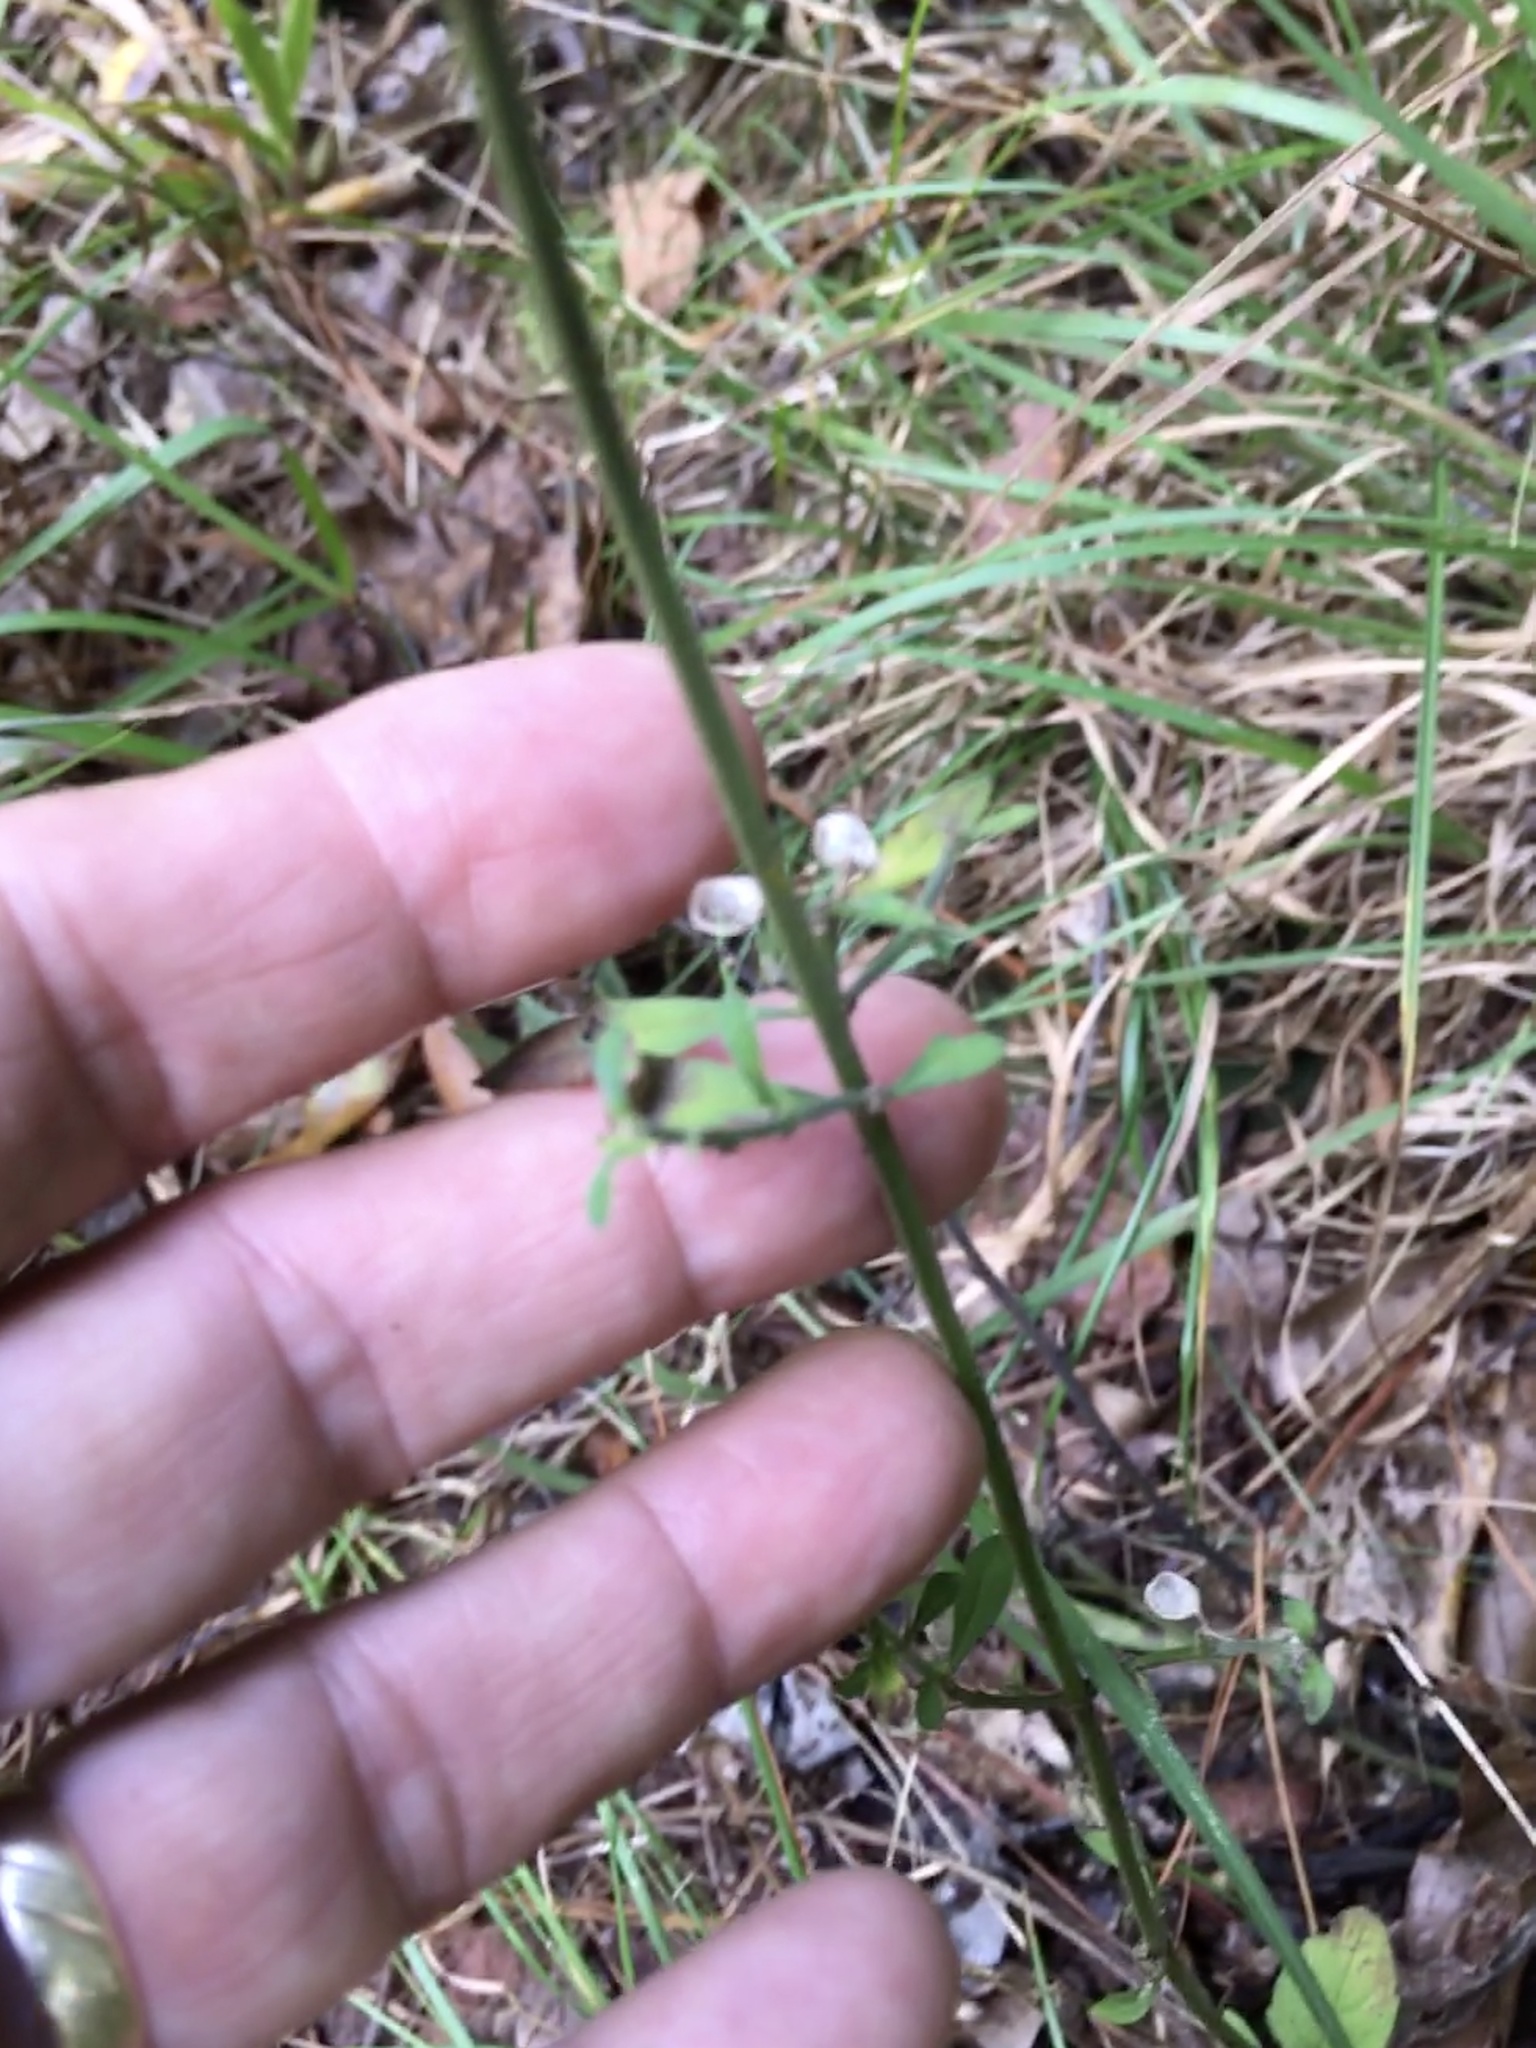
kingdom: Plantae
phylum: Tracheophyta
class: Magnoliopsida
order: Lamiales
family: Lamiaceae
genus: Scutellaria
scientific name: Scutellaria integrifolia
